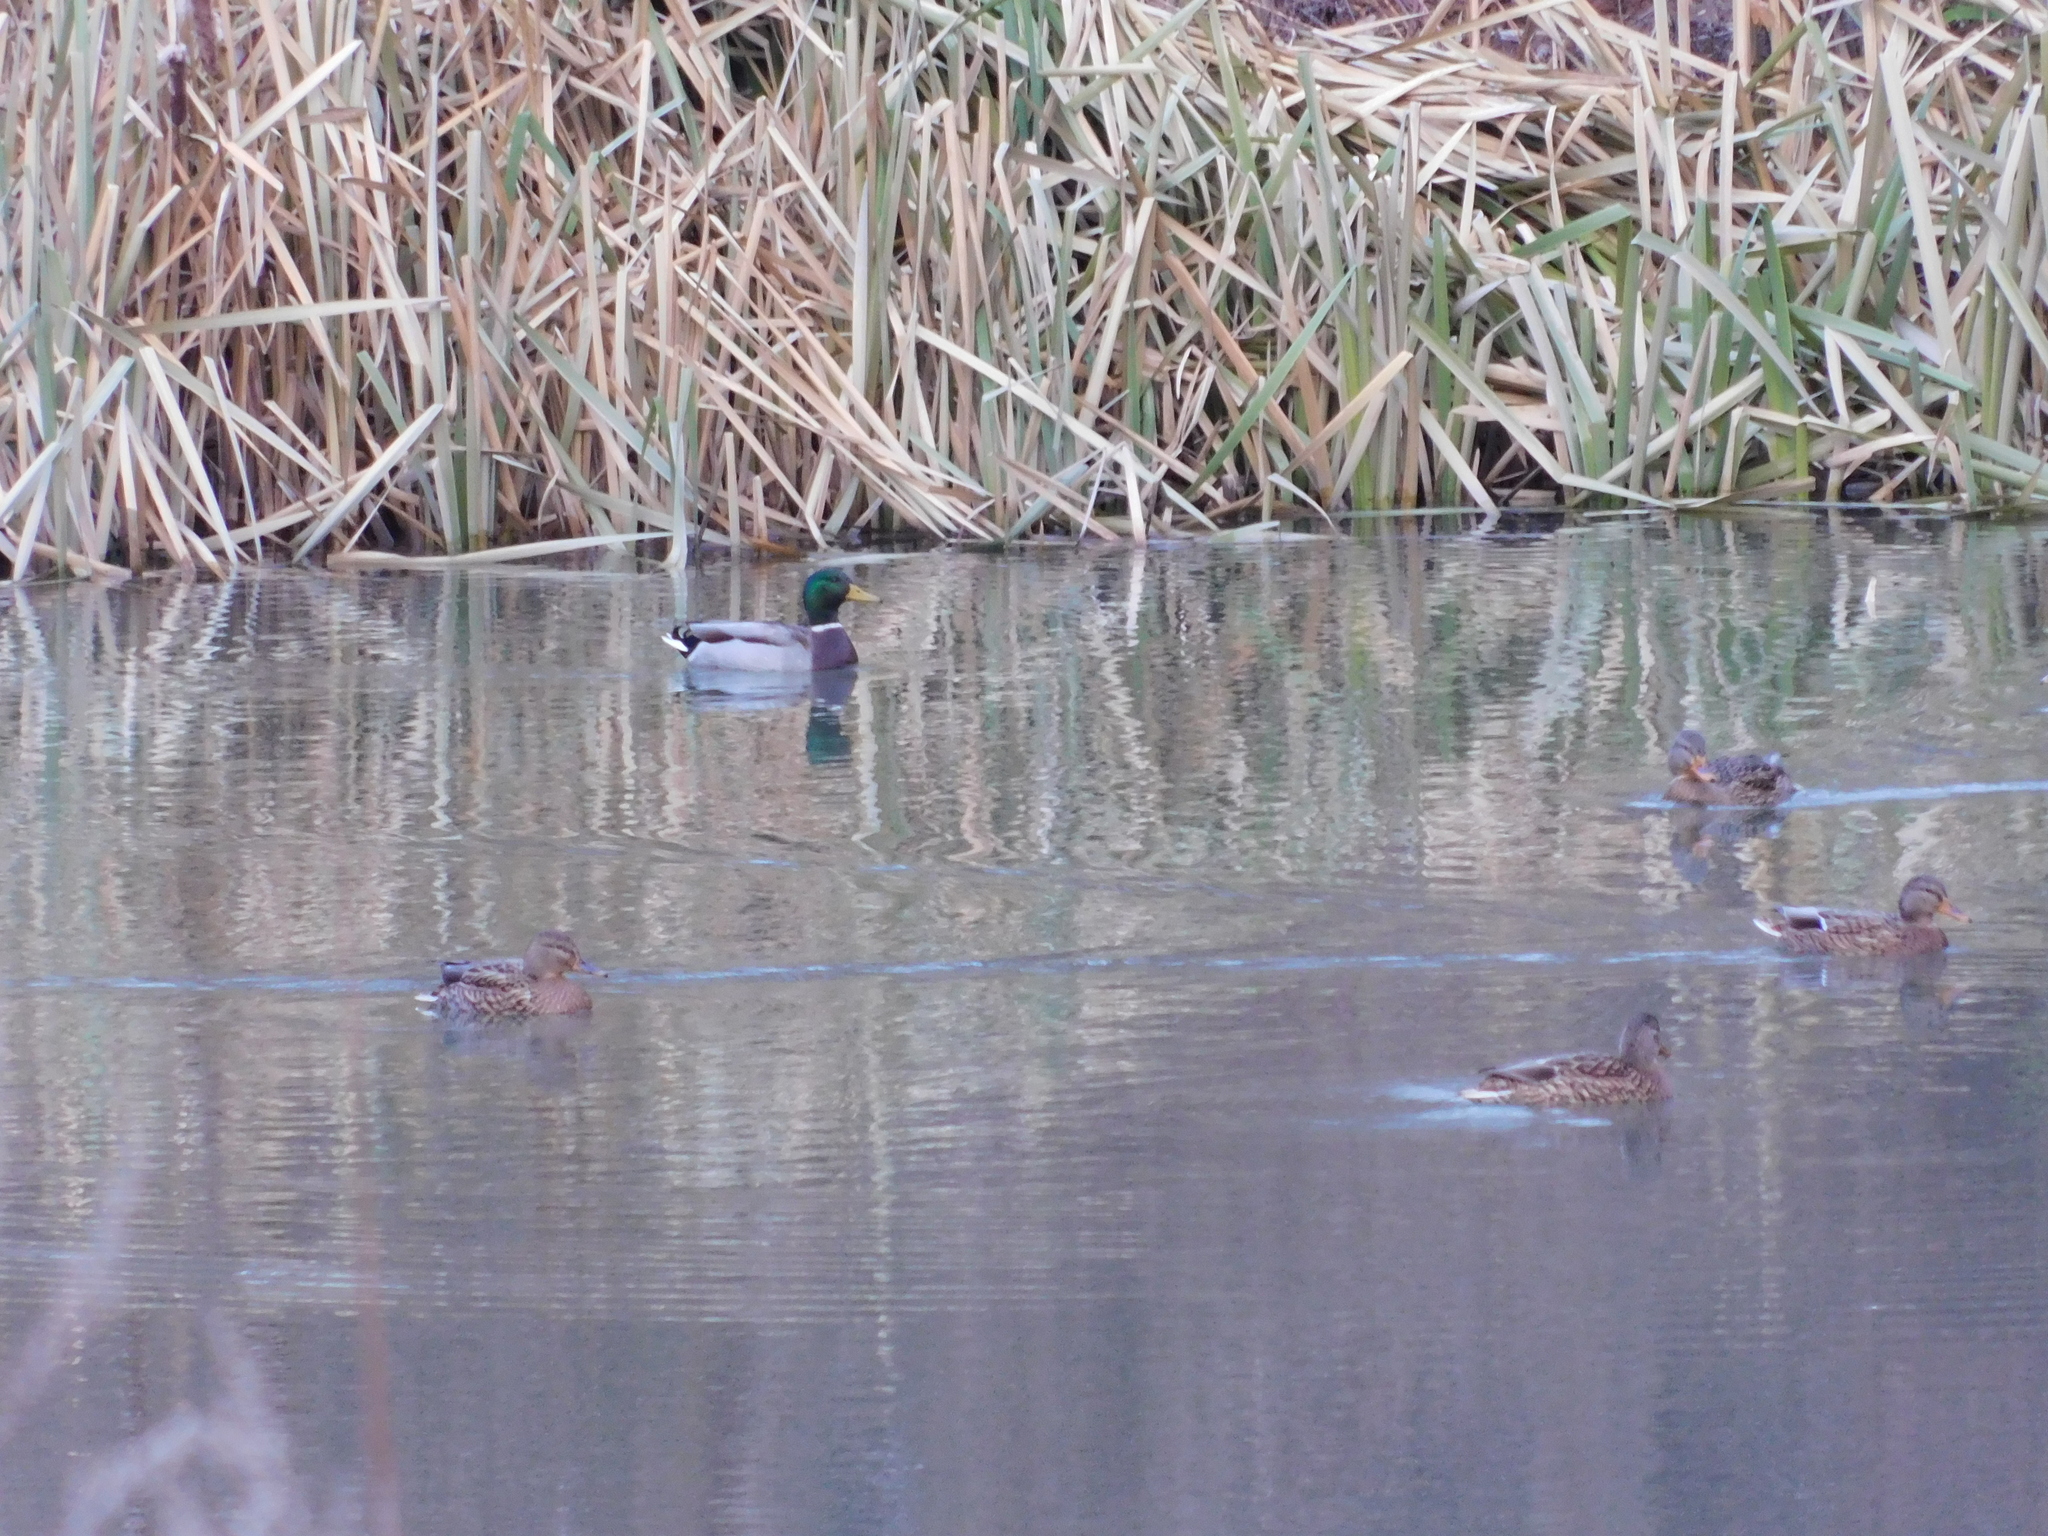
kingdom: Animalia
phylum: Chordata
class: Aves
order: Anseriformes
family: Anatidae
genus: Anas
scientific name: Anas platyrhynchos
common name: Mallard
